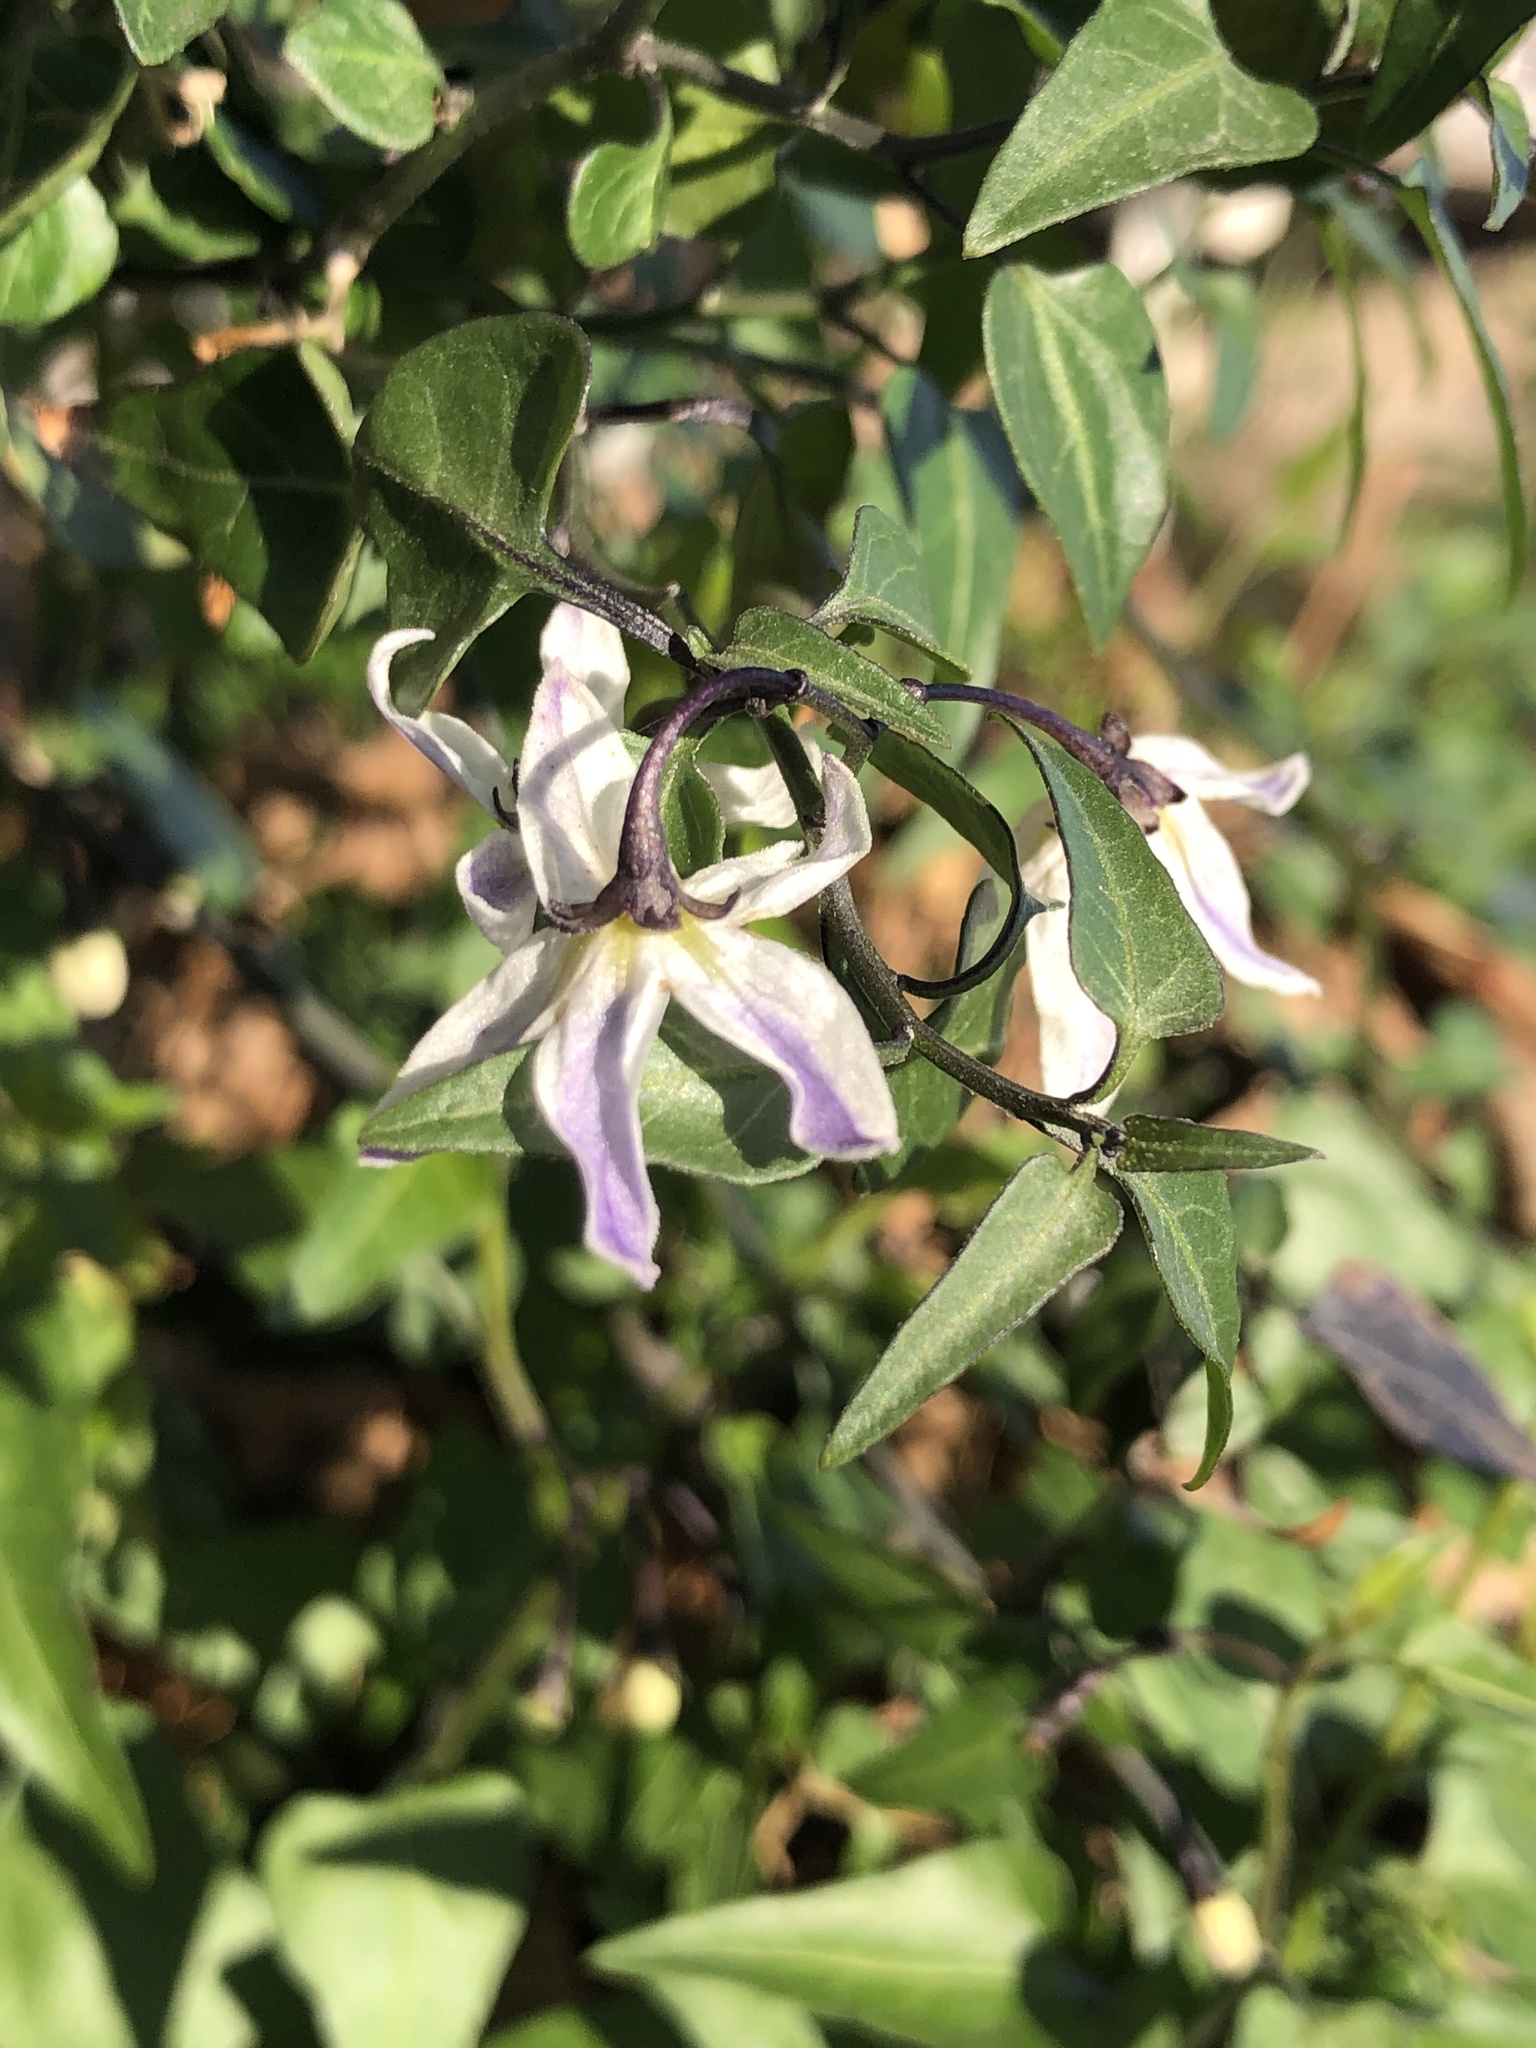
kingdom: Plantae
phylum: Tracheophyta
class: Magnoliopsida
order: Solanales
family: Solanaceae
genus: Solanum
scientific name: Solanum triquetrum
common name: Texas nightshade
